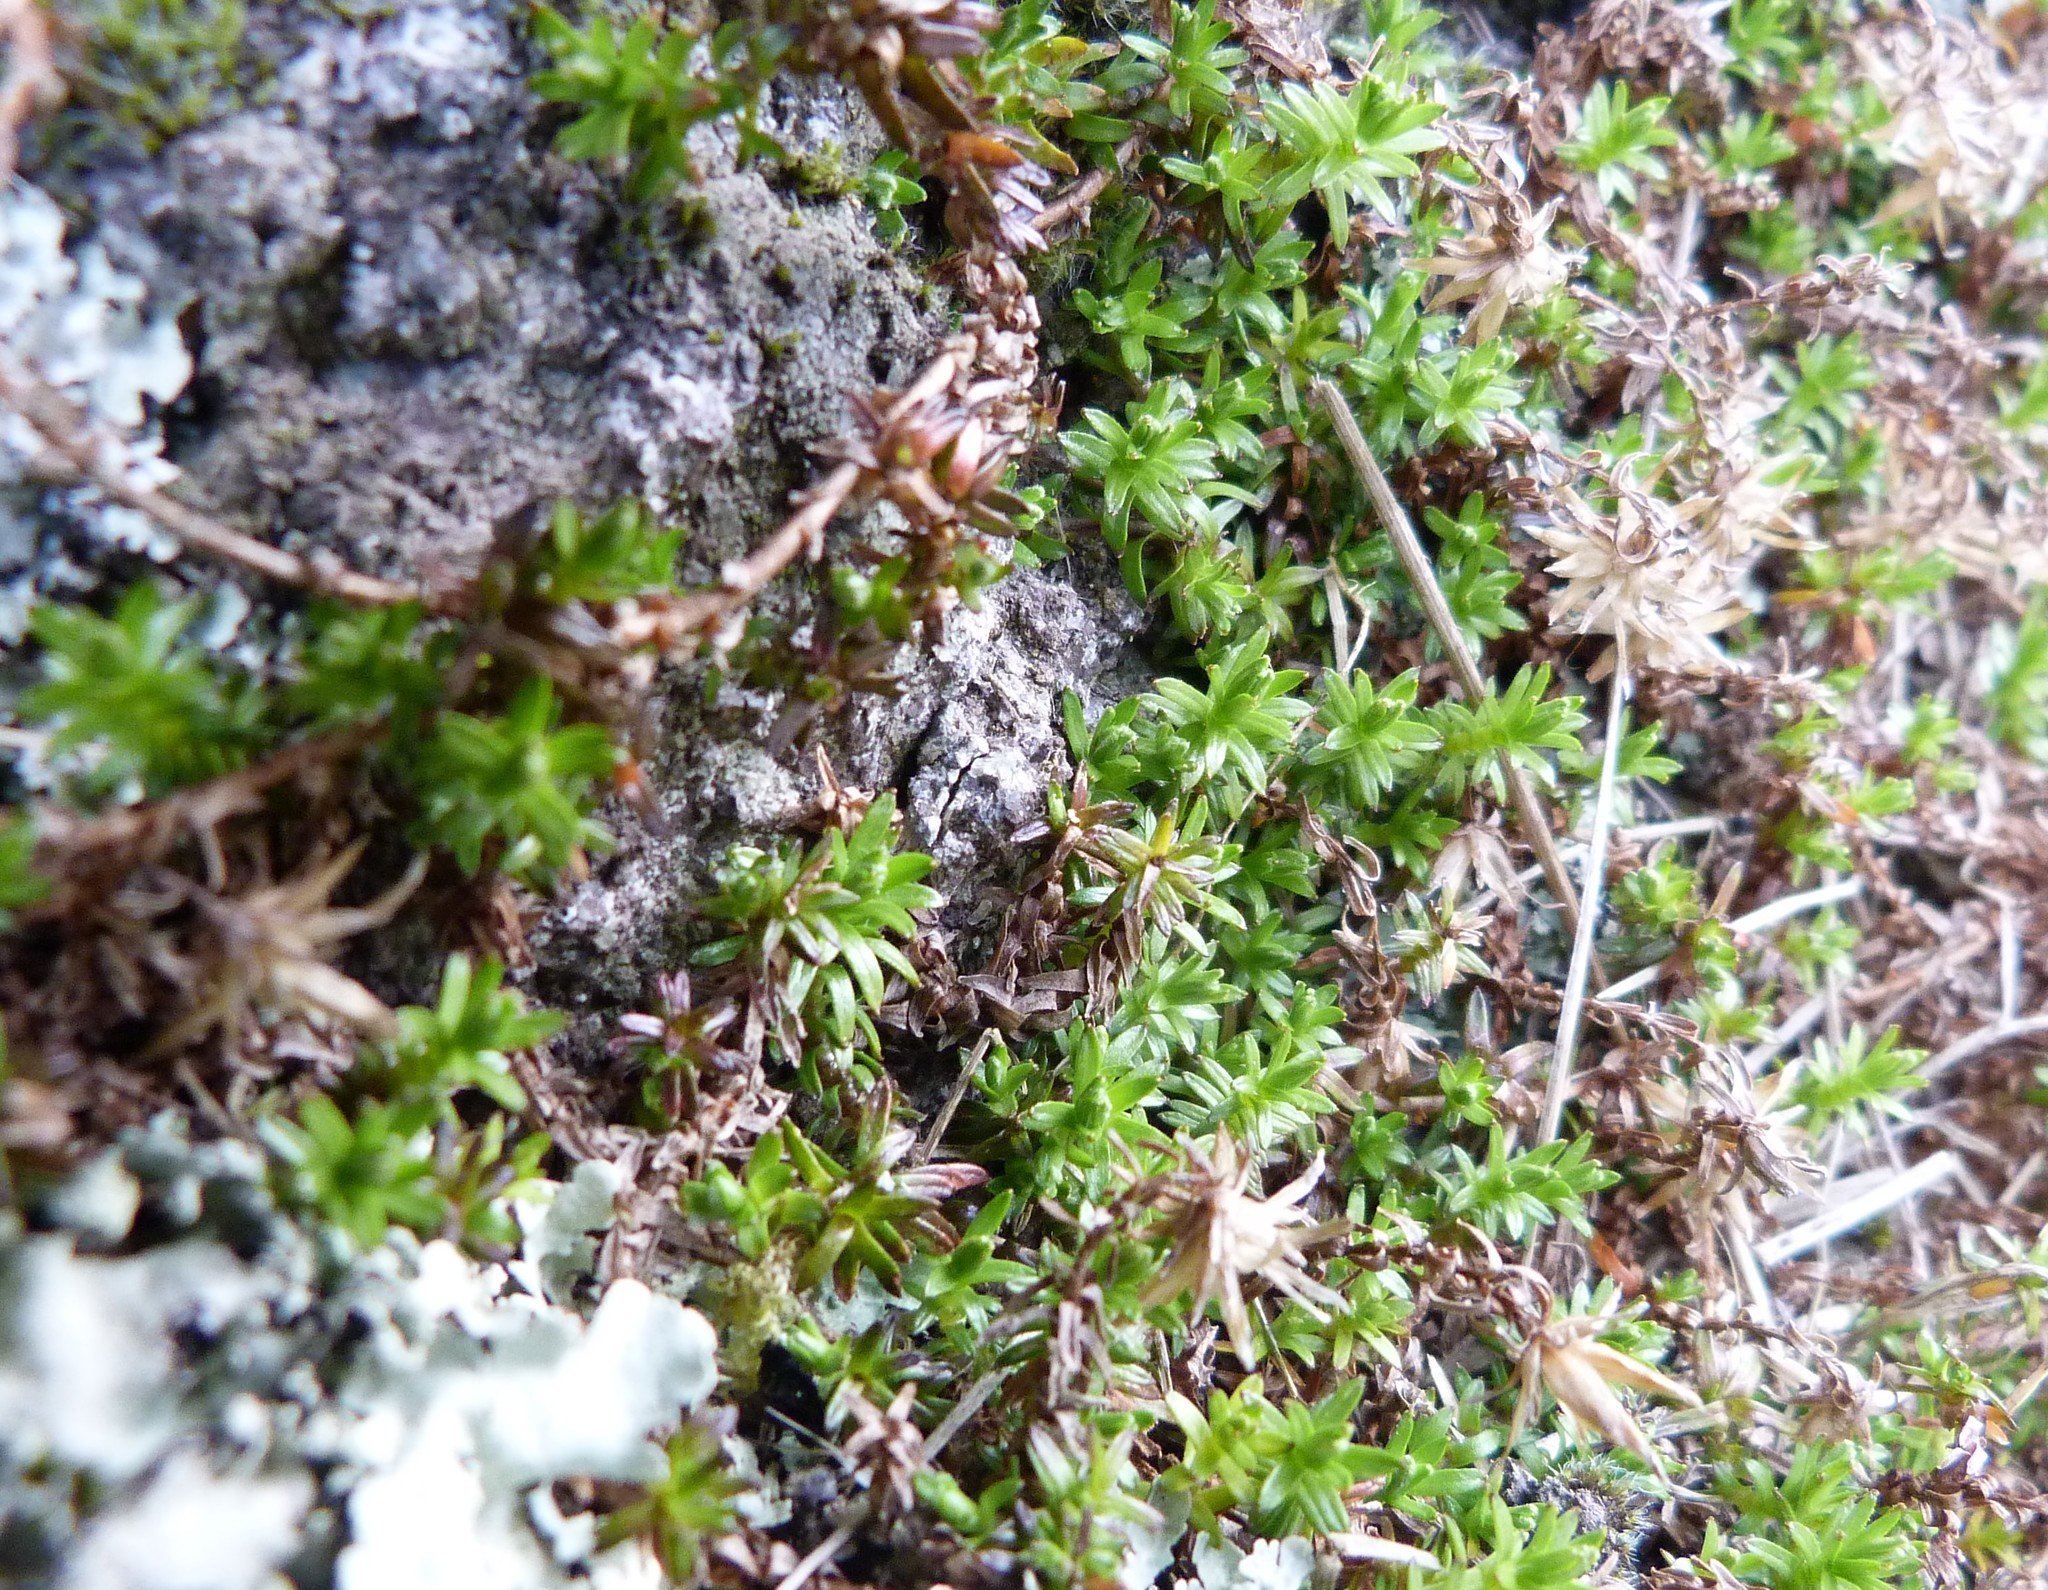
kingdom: Plantae
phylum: Tracheophyta
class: Magnoliopsida
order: Asterales
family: Asteraceae
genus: Raoulia
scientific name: Raoulia glabra
